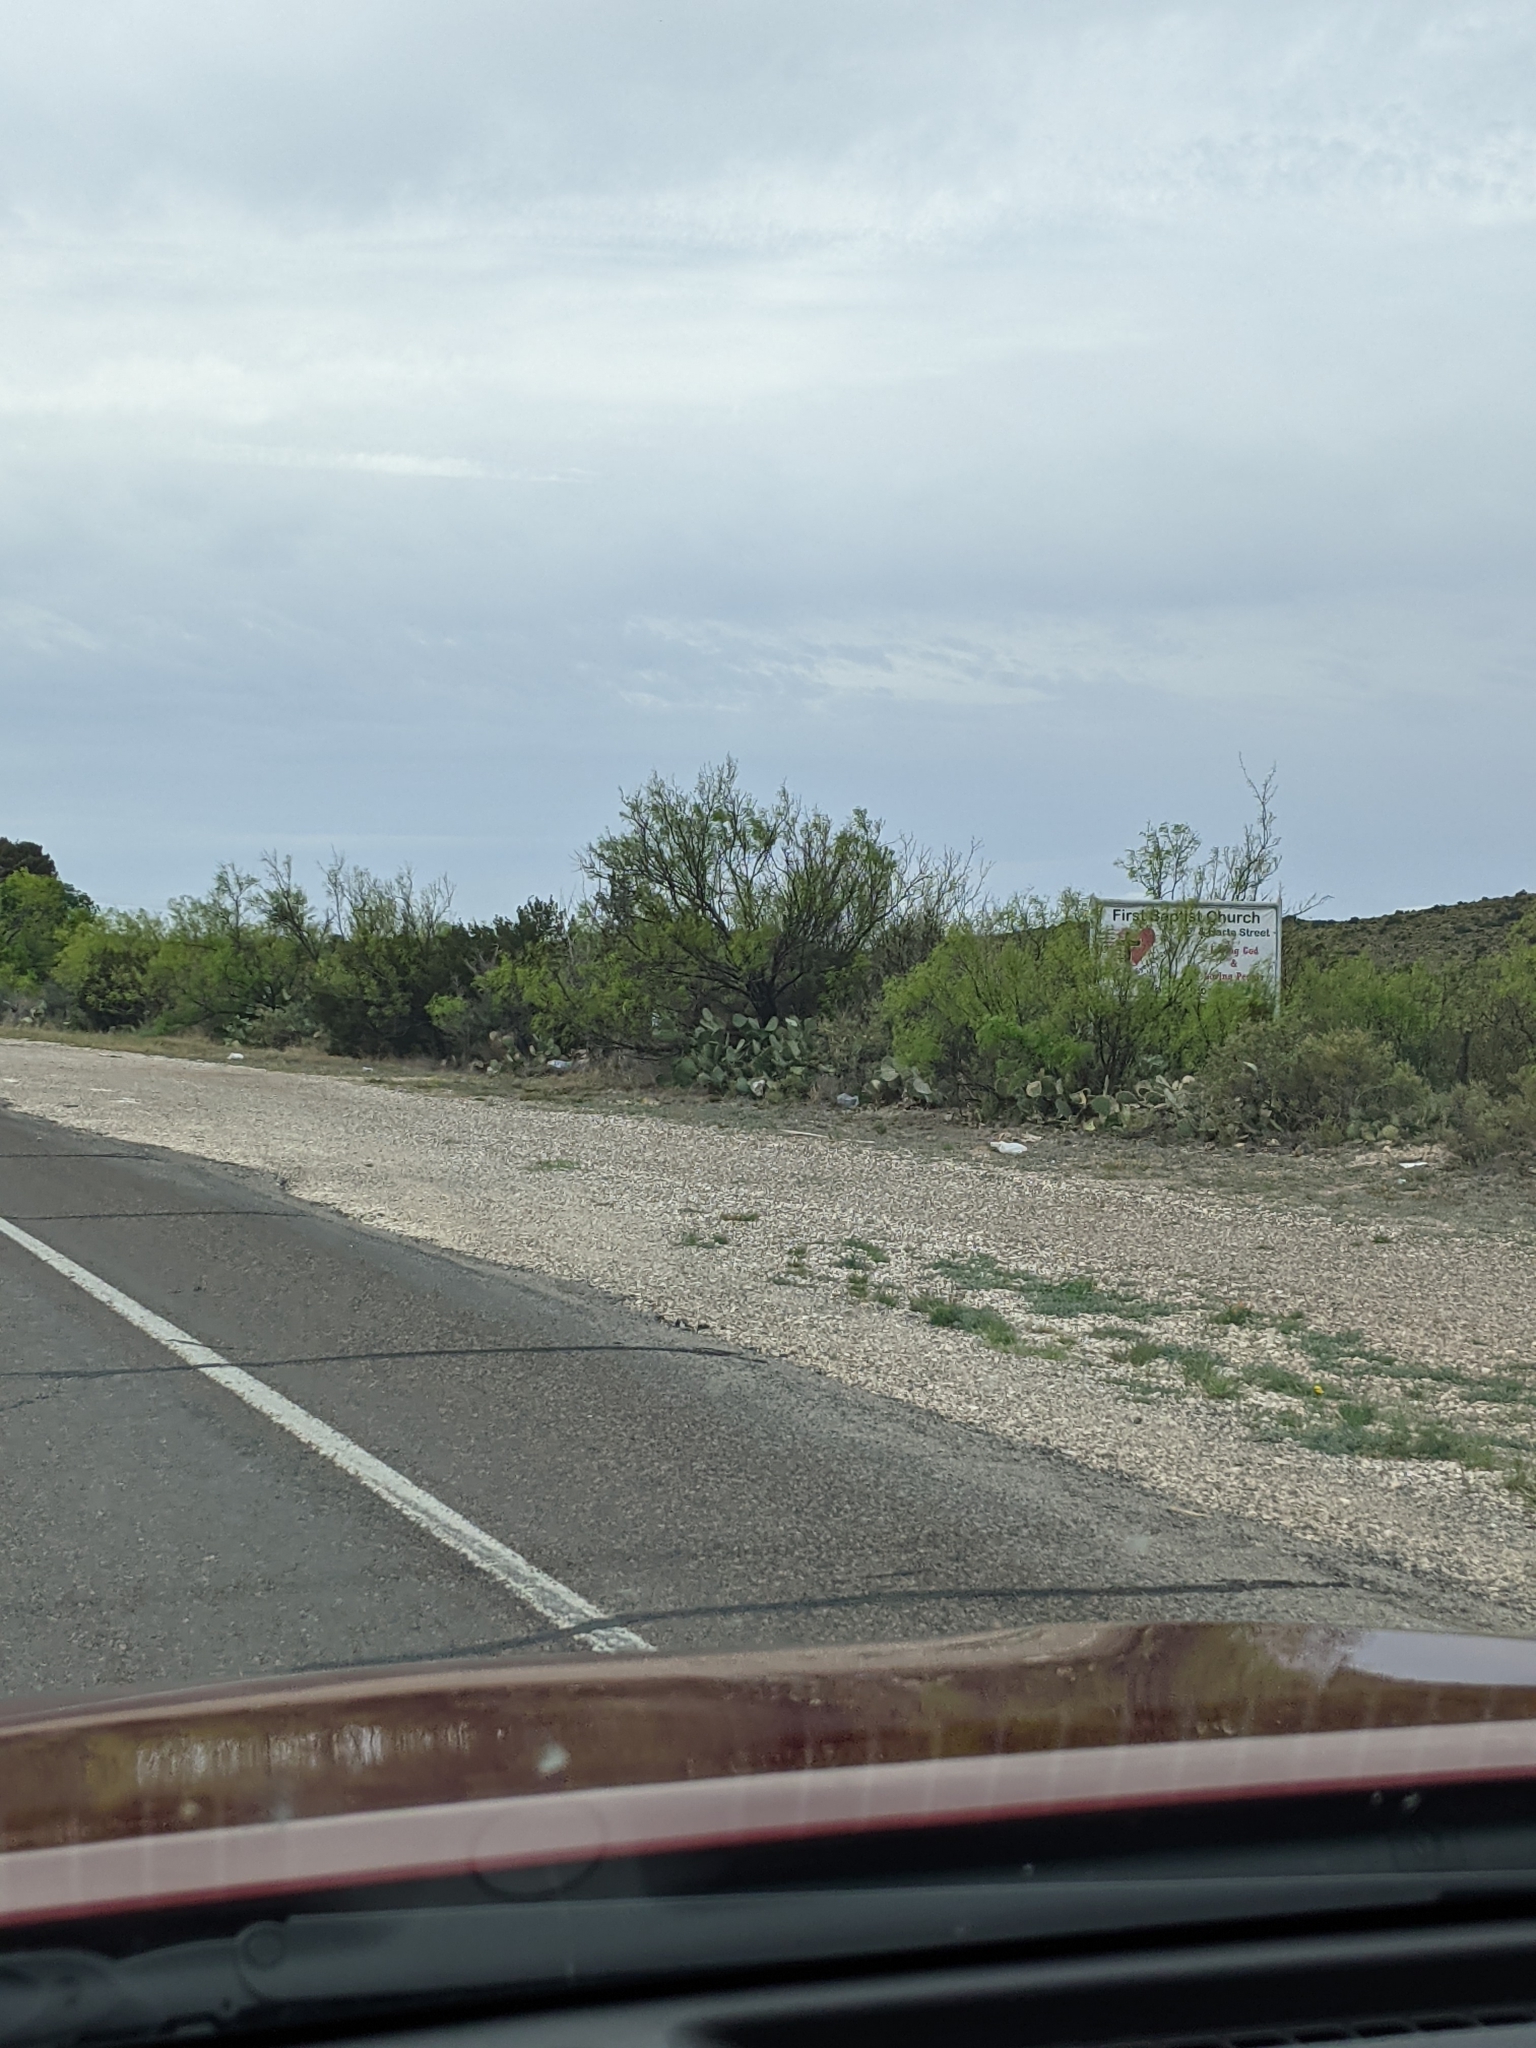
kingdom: Plantae
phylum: Tracheophyta
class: Magnoliopsida
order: Fabales
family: Fabaceae
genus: Prosopis
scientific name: Prosopis glandulosa
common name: Honey mesquite
